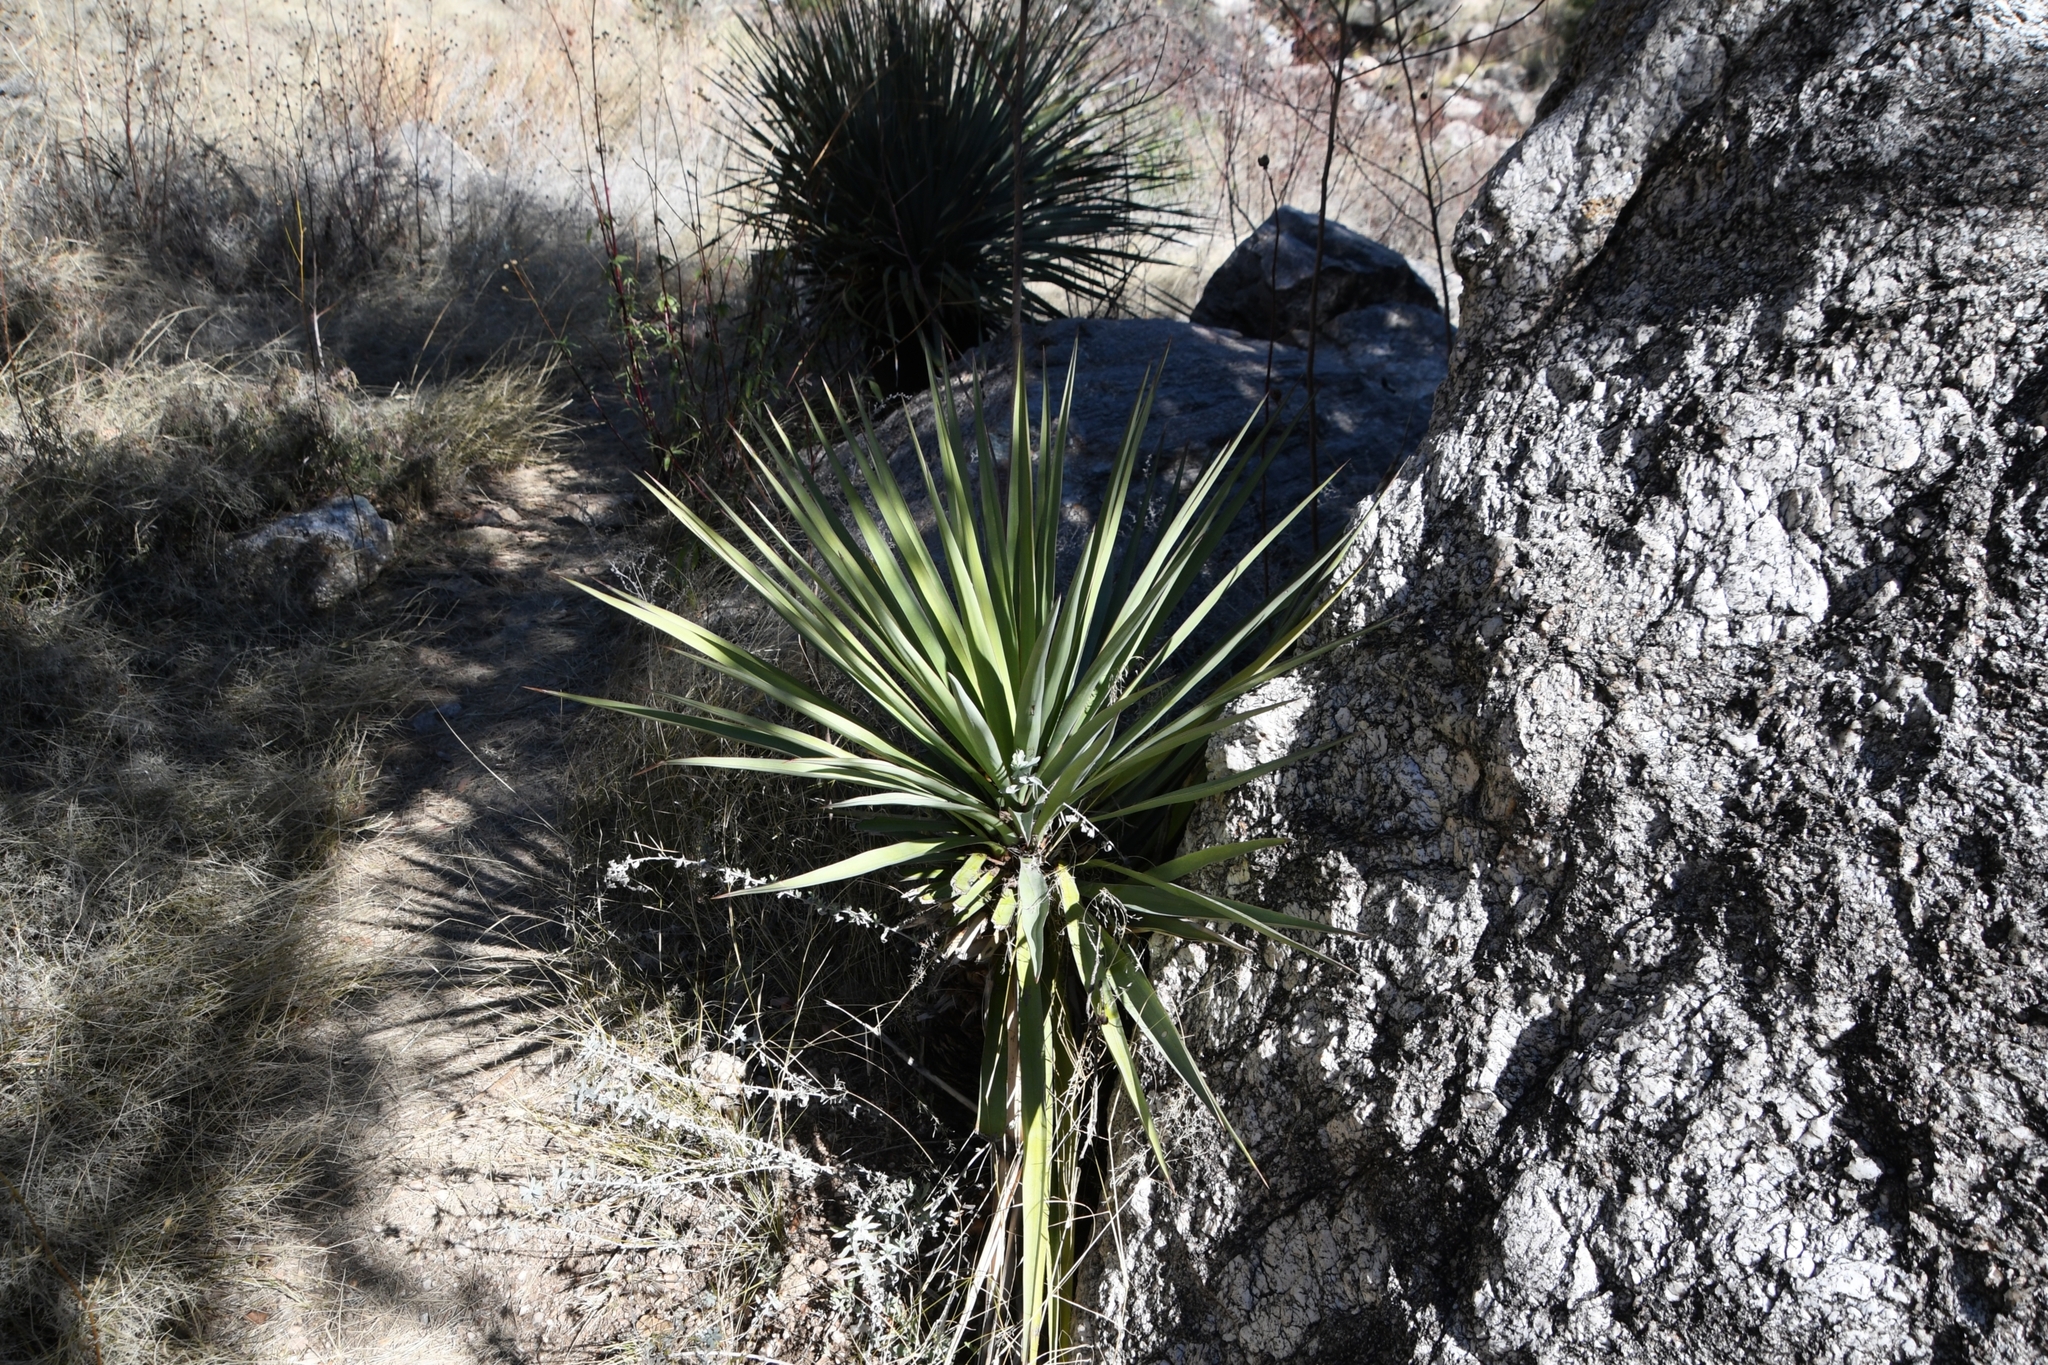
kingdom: Plantae
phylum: Tracheophyta
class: Liliopsida
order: Asparagales
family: Asparagaceae
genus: Yucca
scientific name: Yucca schottii
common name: Hoary yucca
